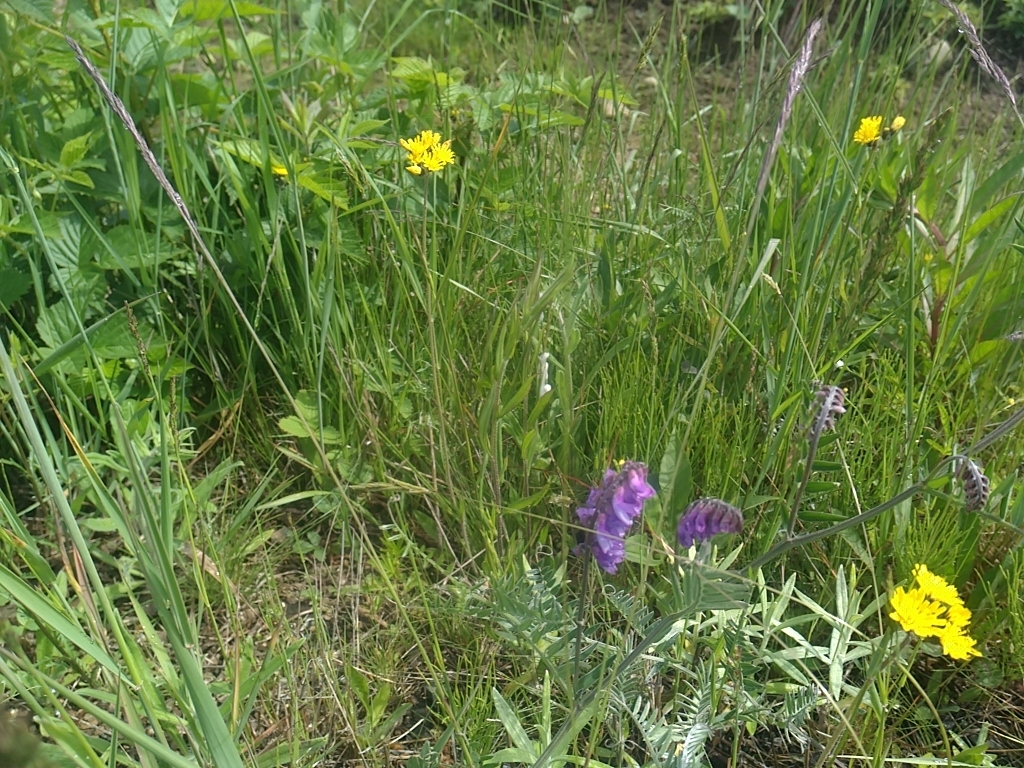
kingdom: Plantae
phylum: Tracheophyta
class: Magnoliopsida
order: Fabales
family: Fabaceae
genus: Vicia
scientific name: Vicia cracca
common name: Bird vetch
